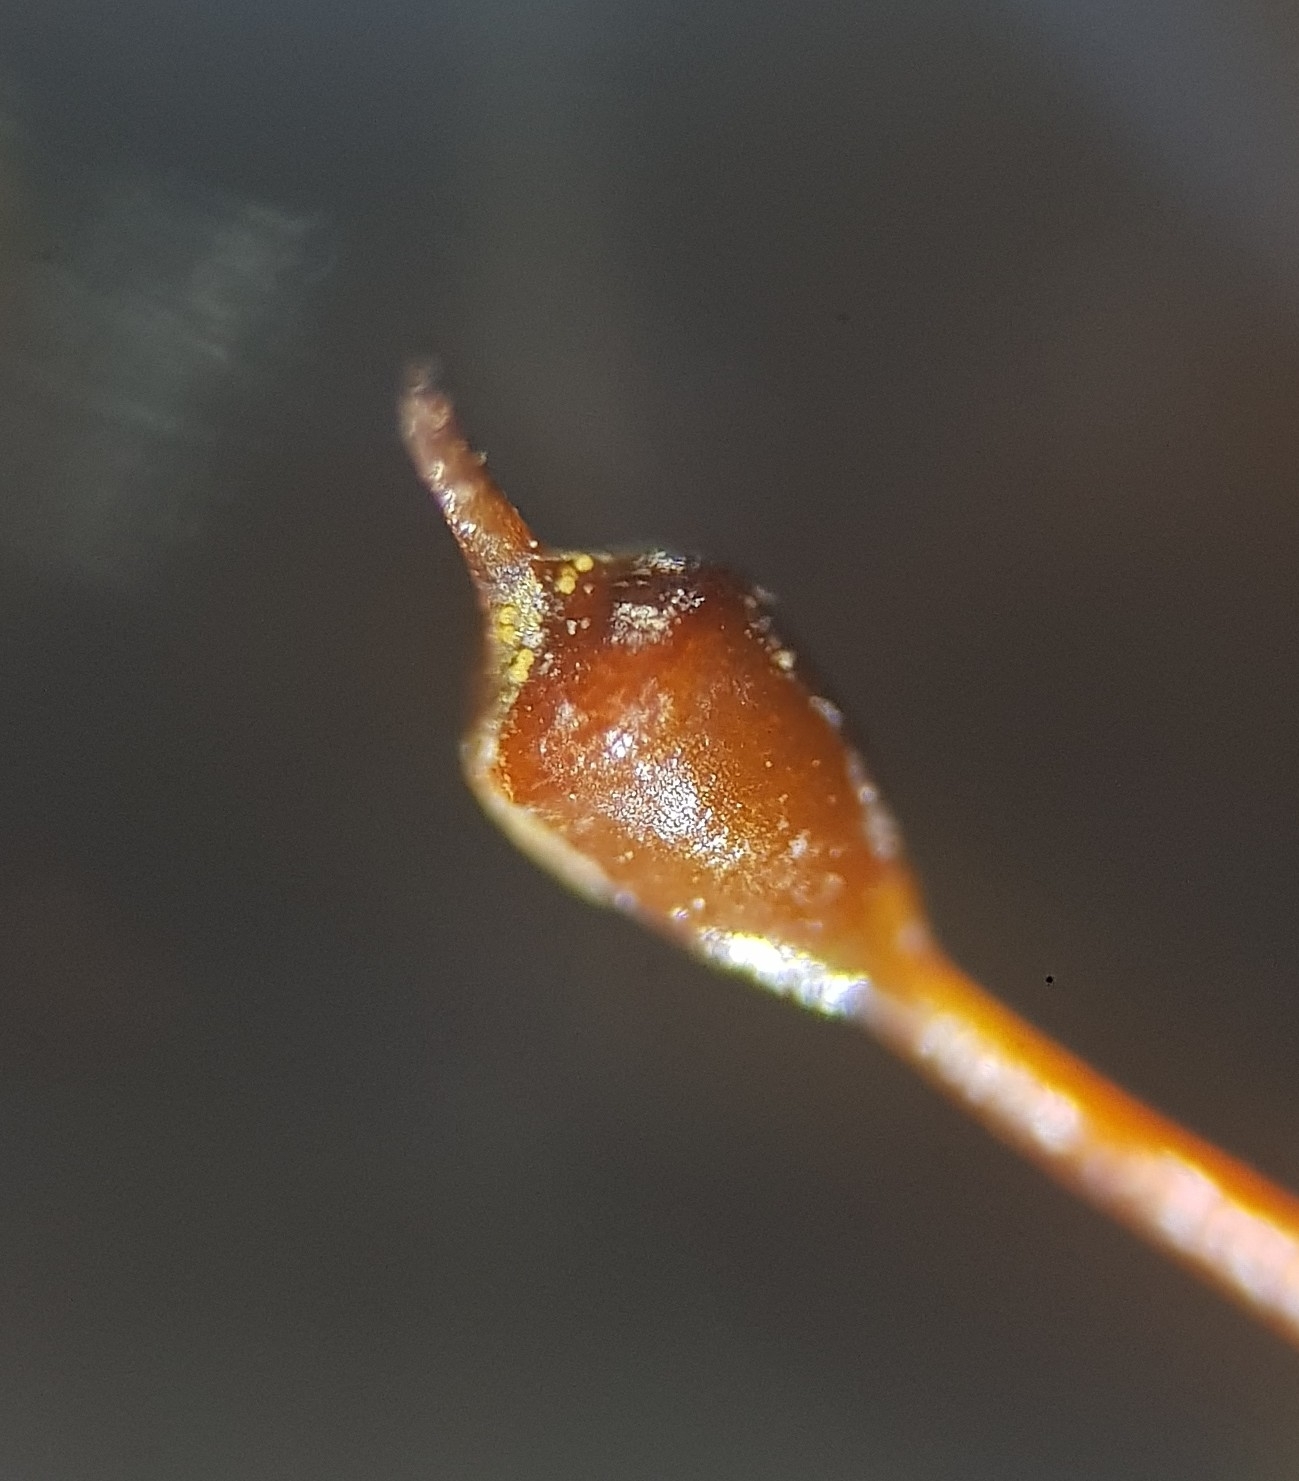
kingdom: Plantae
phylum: Bryophyta
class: Bryopsida
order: Pottiales
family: Pottiaceae
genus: Tortula
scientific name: Tortula caucasica
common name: Blunt-fruited pottia
